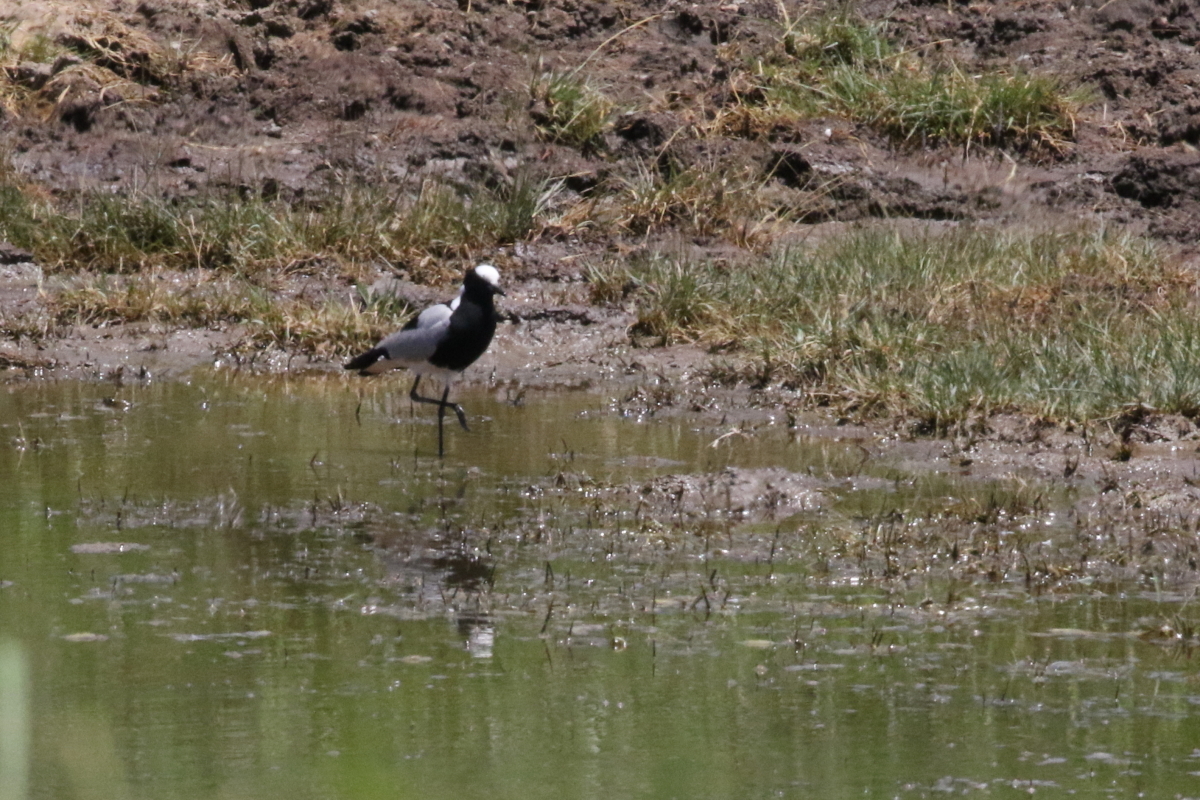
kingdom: Animalia
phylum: Chordata
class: Aves
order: Charadriiformes
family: Charadriidae
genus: Vanellus
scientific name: Vanellus armatus
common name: Blacksmith lapwing
